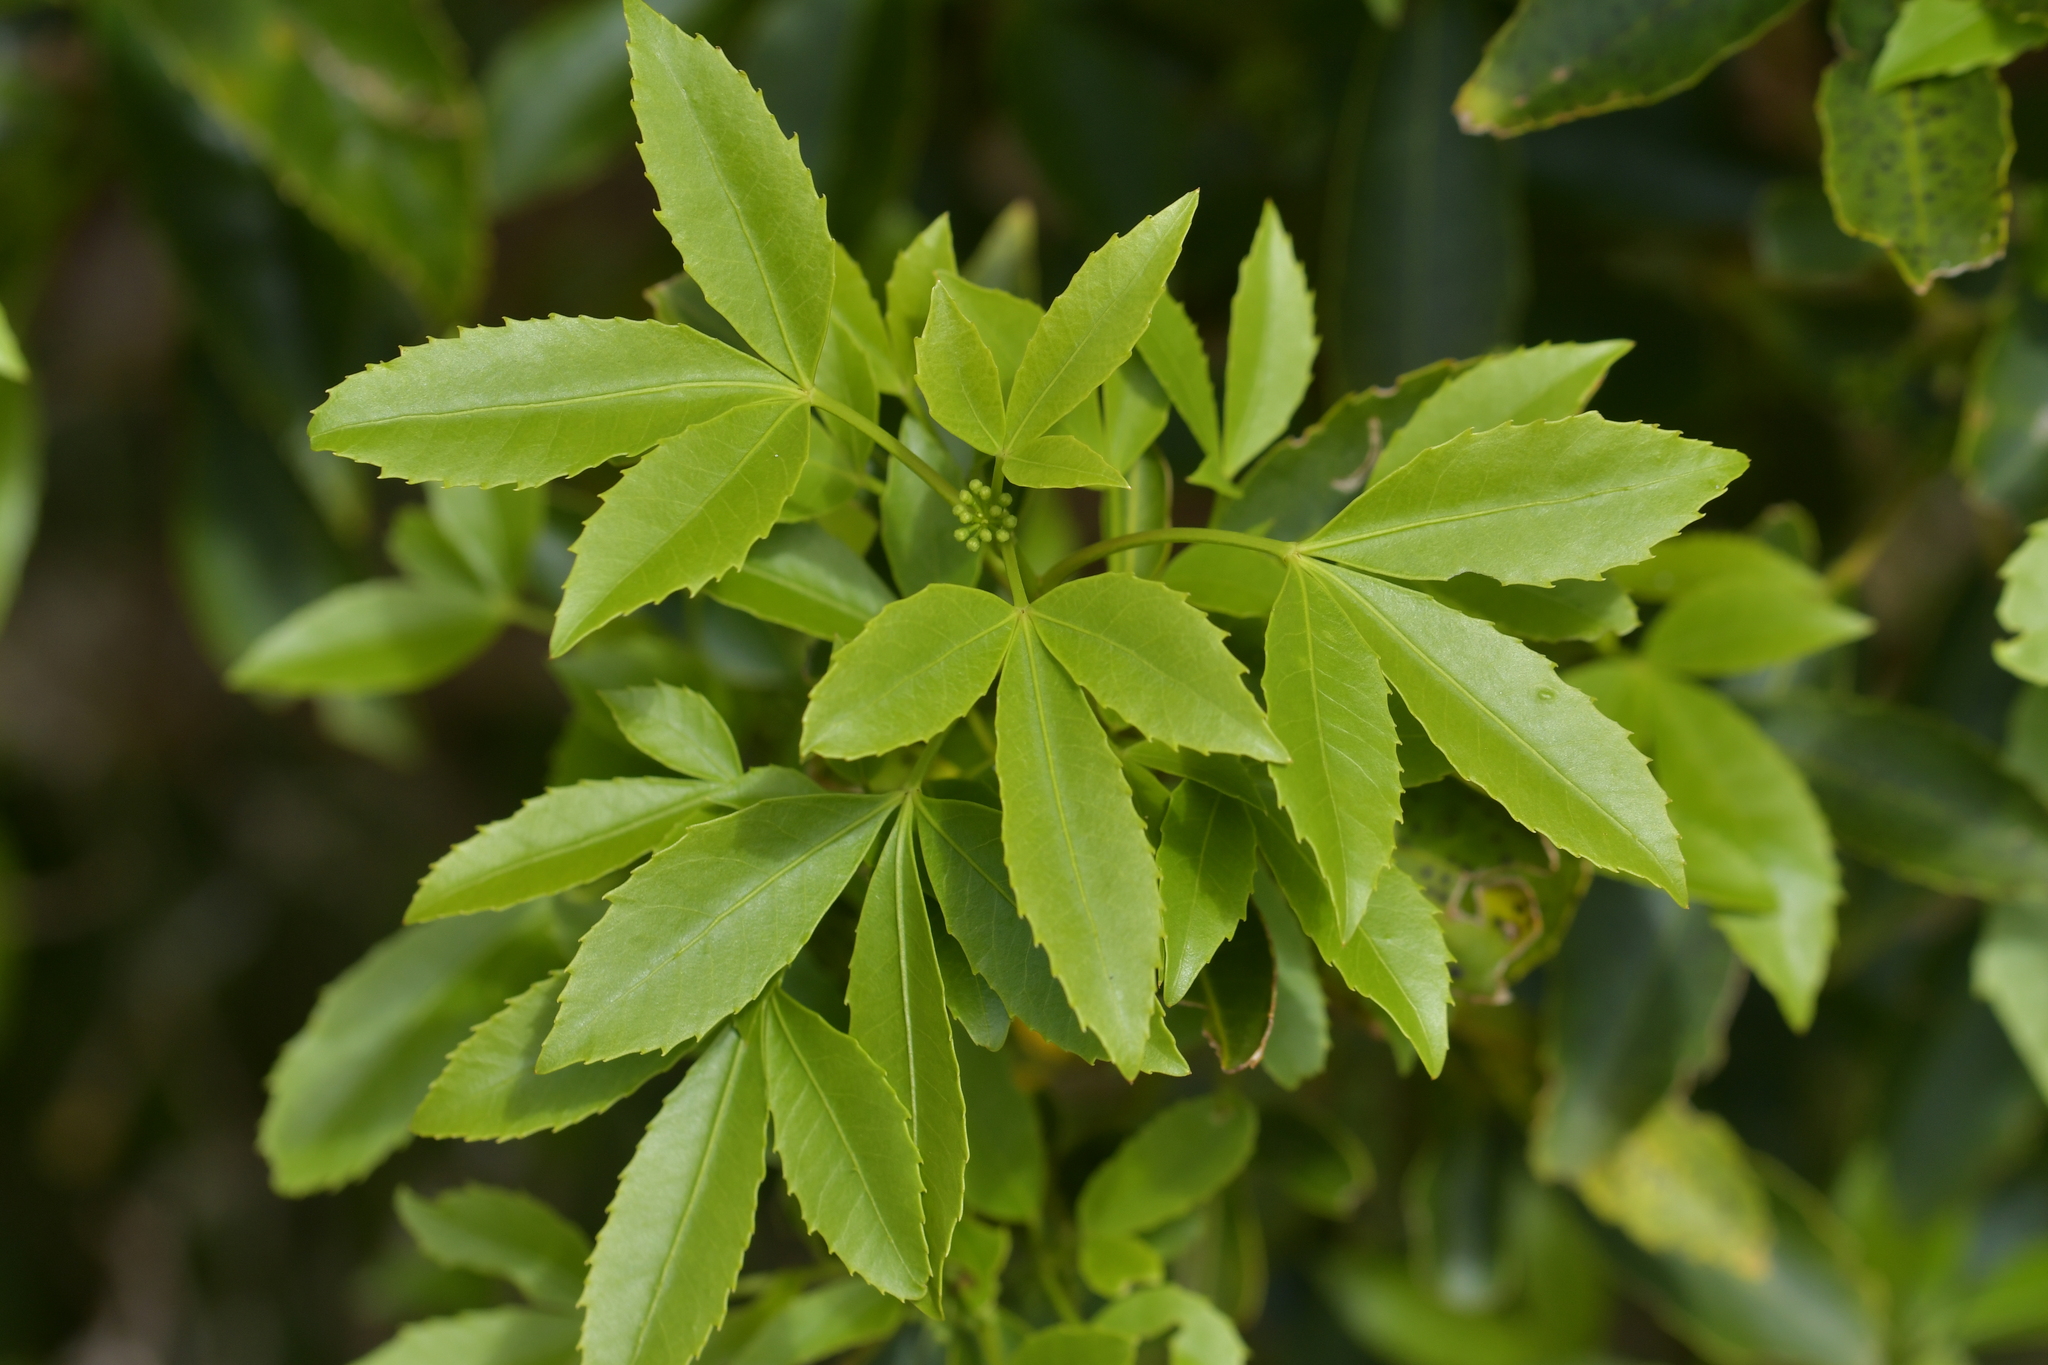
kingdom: Plantae
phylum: Tracheophyta
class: Magnoliopsida
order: Apiales
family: Araliaceae
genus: Raukaua
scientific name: Raukaua simplex
